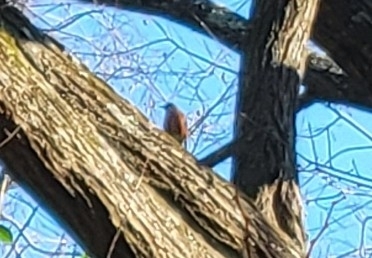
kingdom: Animalia
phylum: Chordata
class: Aves
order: Passeriformes
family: Turdidae
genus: Turdus
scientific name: Turdus migratorius
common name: American robin
